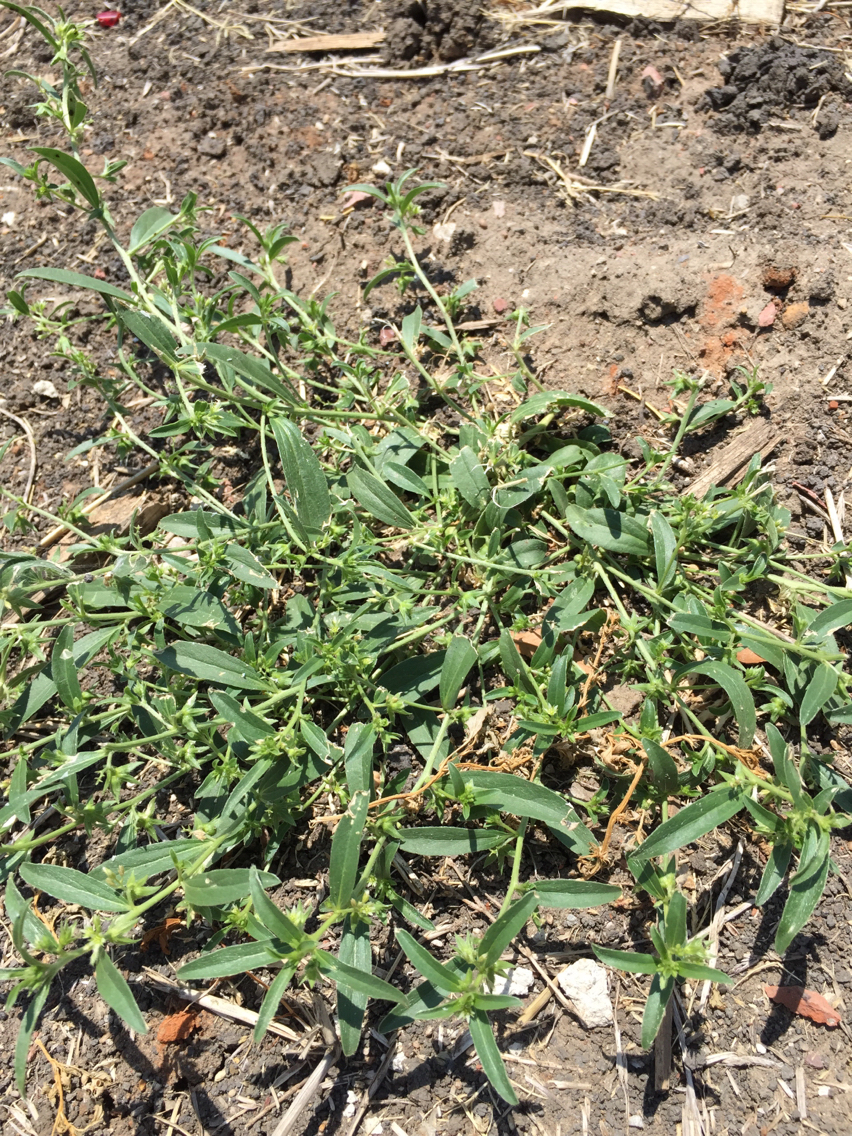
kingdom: Plantae
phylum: Tracheophyta
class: Magnoliopsida
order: Malpighiales
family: Euphorbiaceae
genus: Ditaxis
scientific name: Ditaxis humilis
